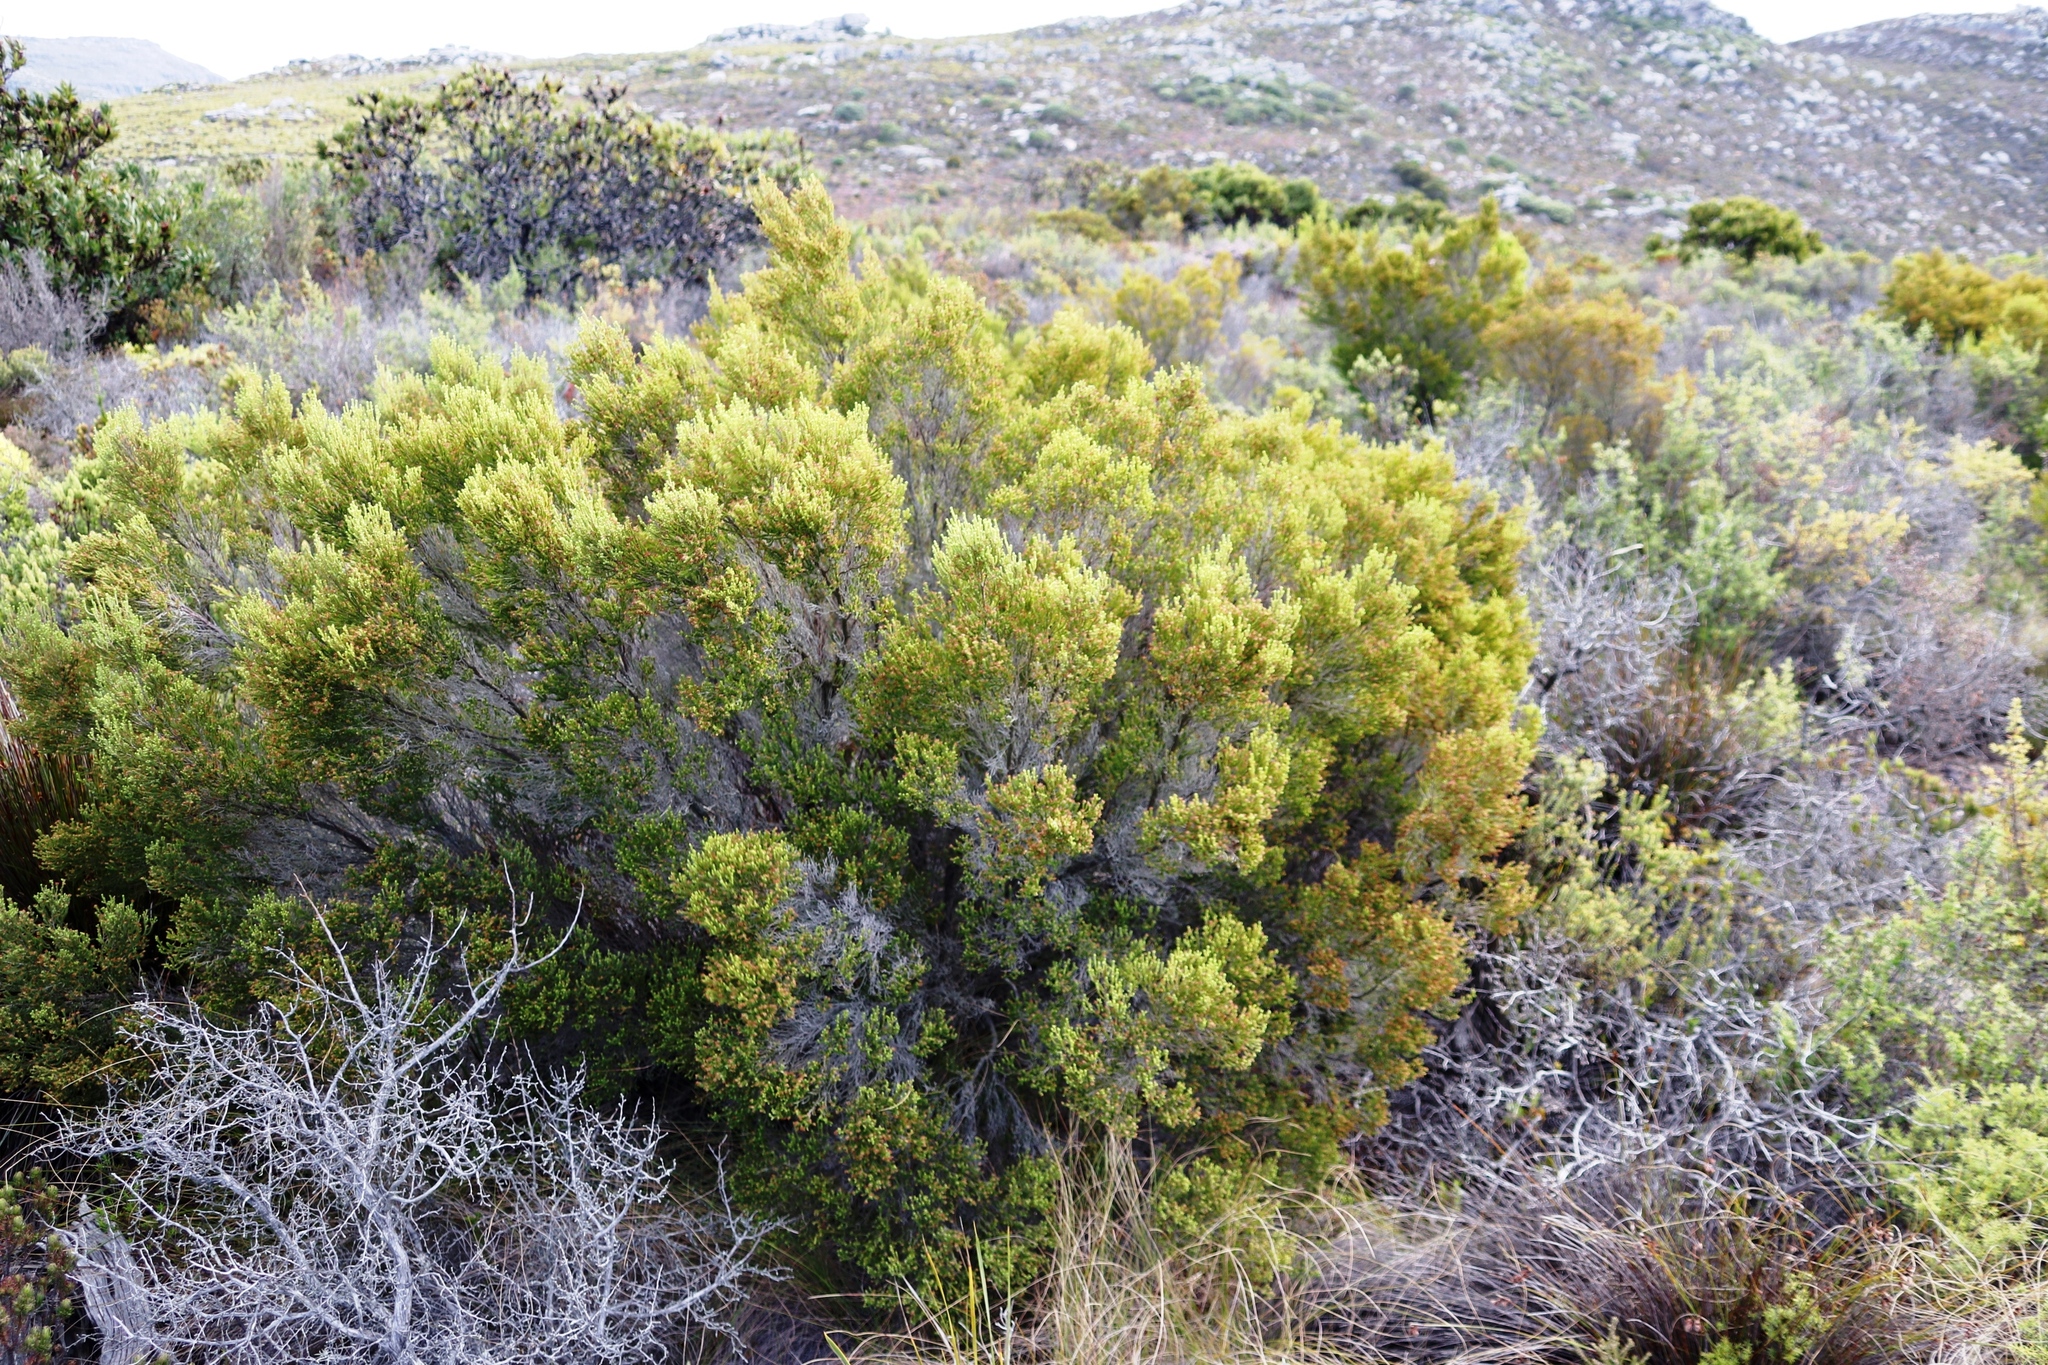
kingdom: Plantae
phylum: Tracheophyta
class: Magnoliopsida
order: Ericales
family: Ericaceae
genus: Erica
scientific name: Erica tristis
